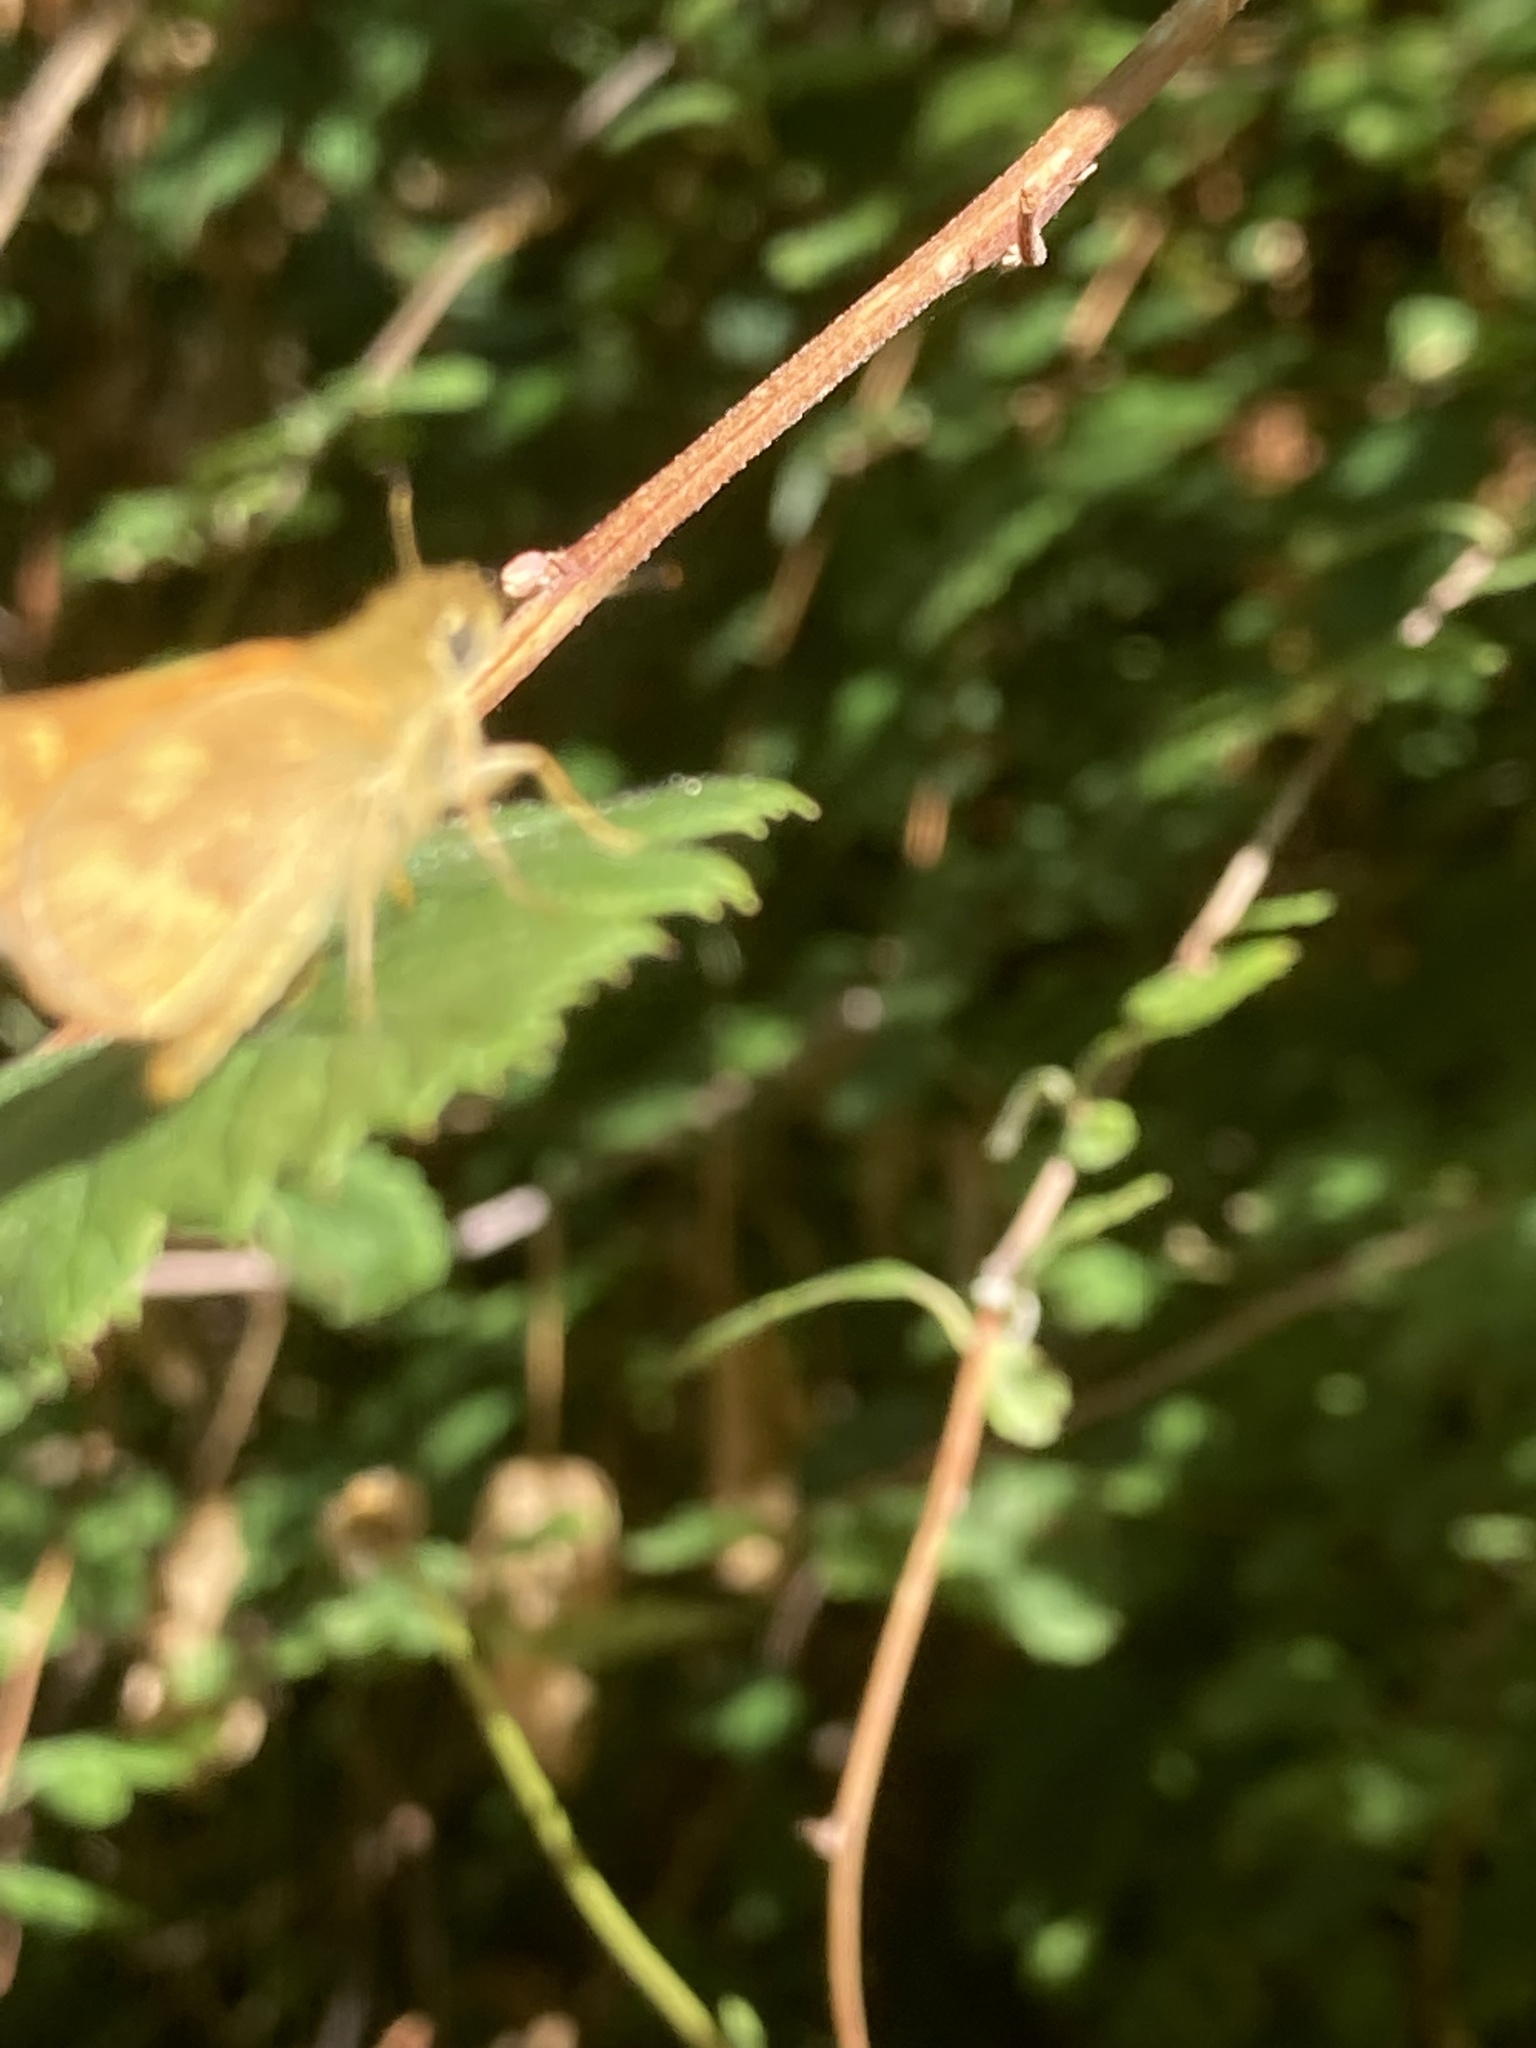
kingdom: Animalia
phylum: Arthropoda
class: Insecta
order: Lepidoptera
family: Hesperiidae
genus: Ochlodes
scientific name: Ochlodes sylvanoides
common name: Woodland skipper
